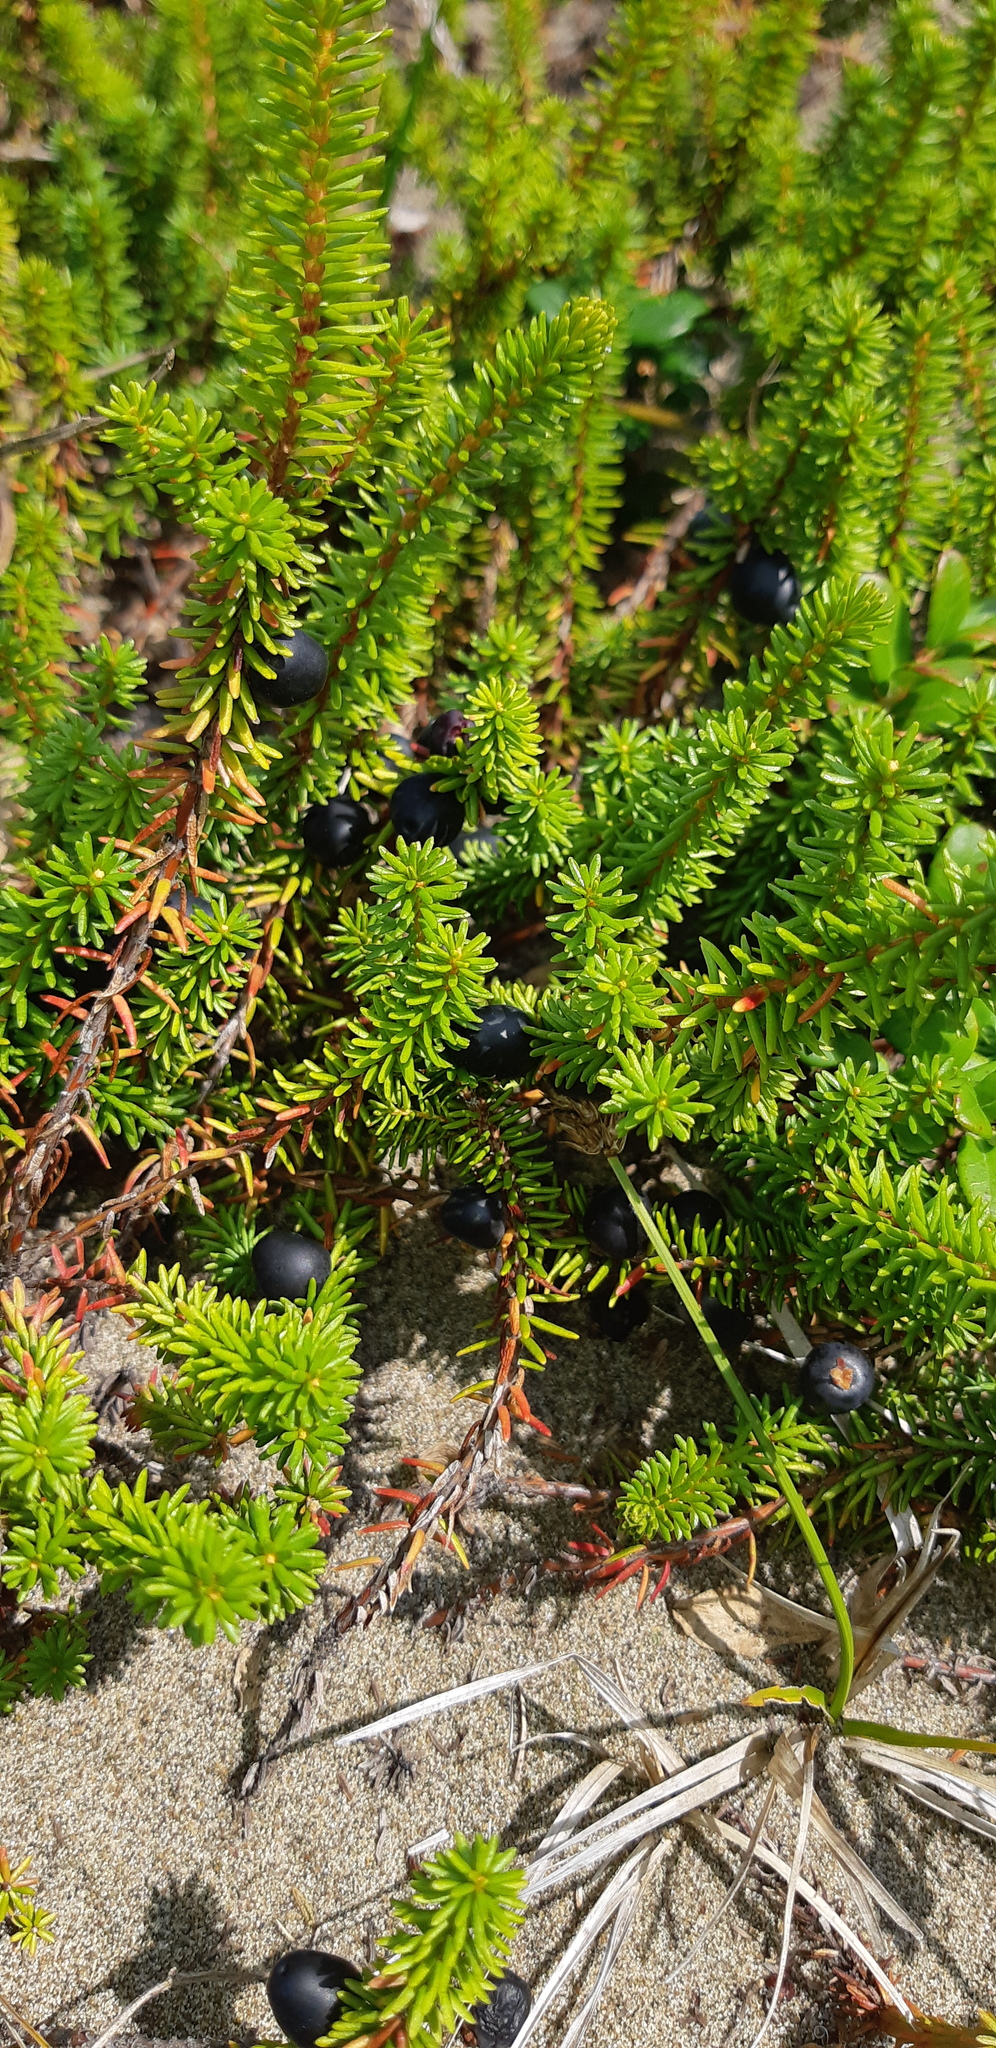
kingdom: Plantae
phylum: Tracheophyta
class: Magnoliopsida
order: Ericales
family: Ericaceae
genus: Empetrum
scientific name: Empetrum nigrum
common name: Black crowberry
